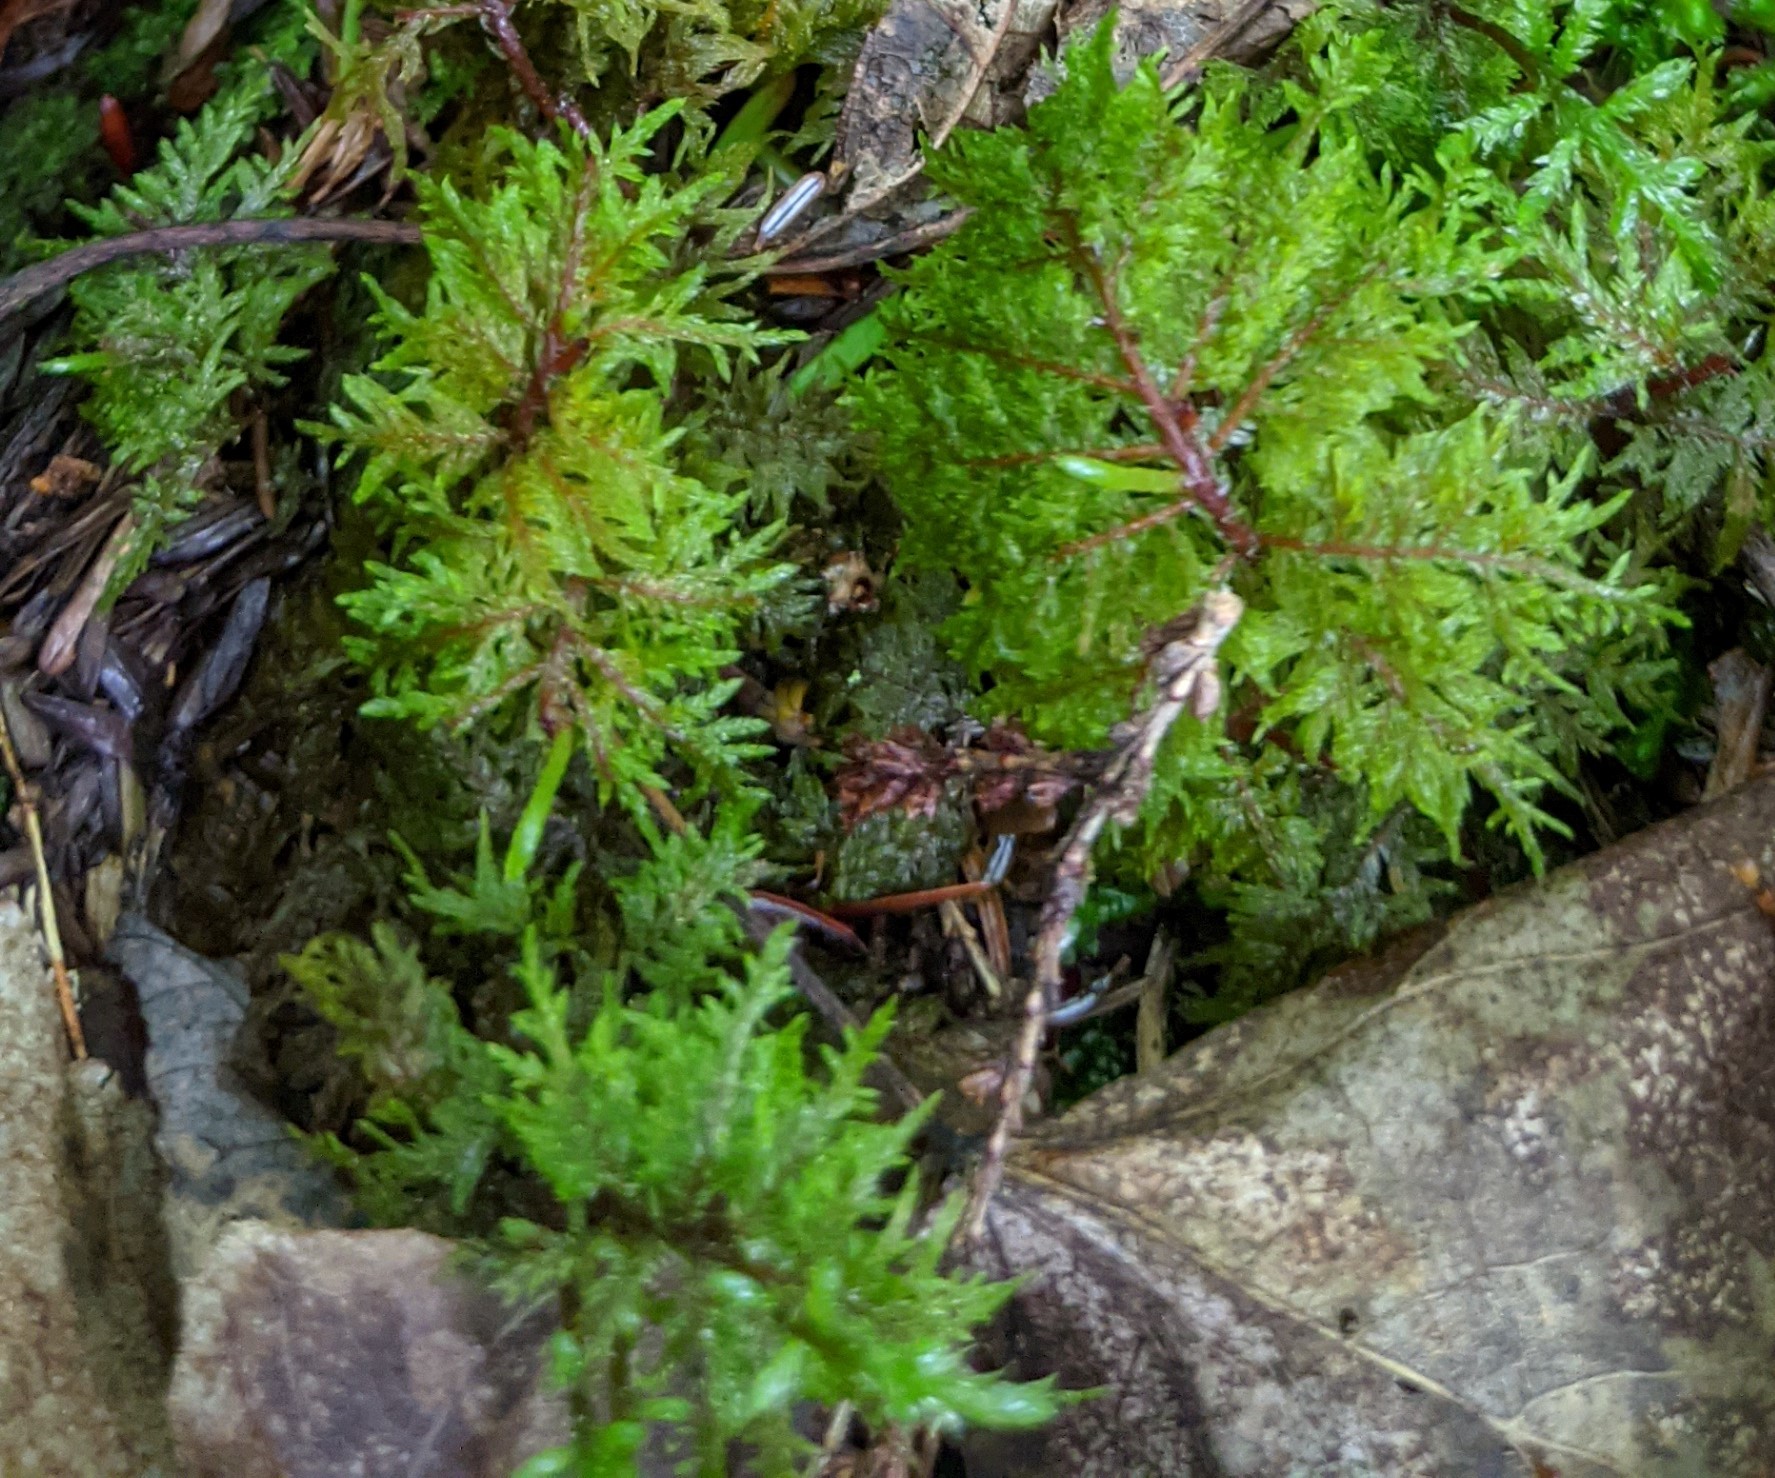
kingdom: Plantae
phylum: Bryophyta
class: Bryopsida
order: Hypnales
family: Hylocomiaceae
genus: Hylocomium
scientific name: Hylocomium splendens
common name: Stairstep moss
